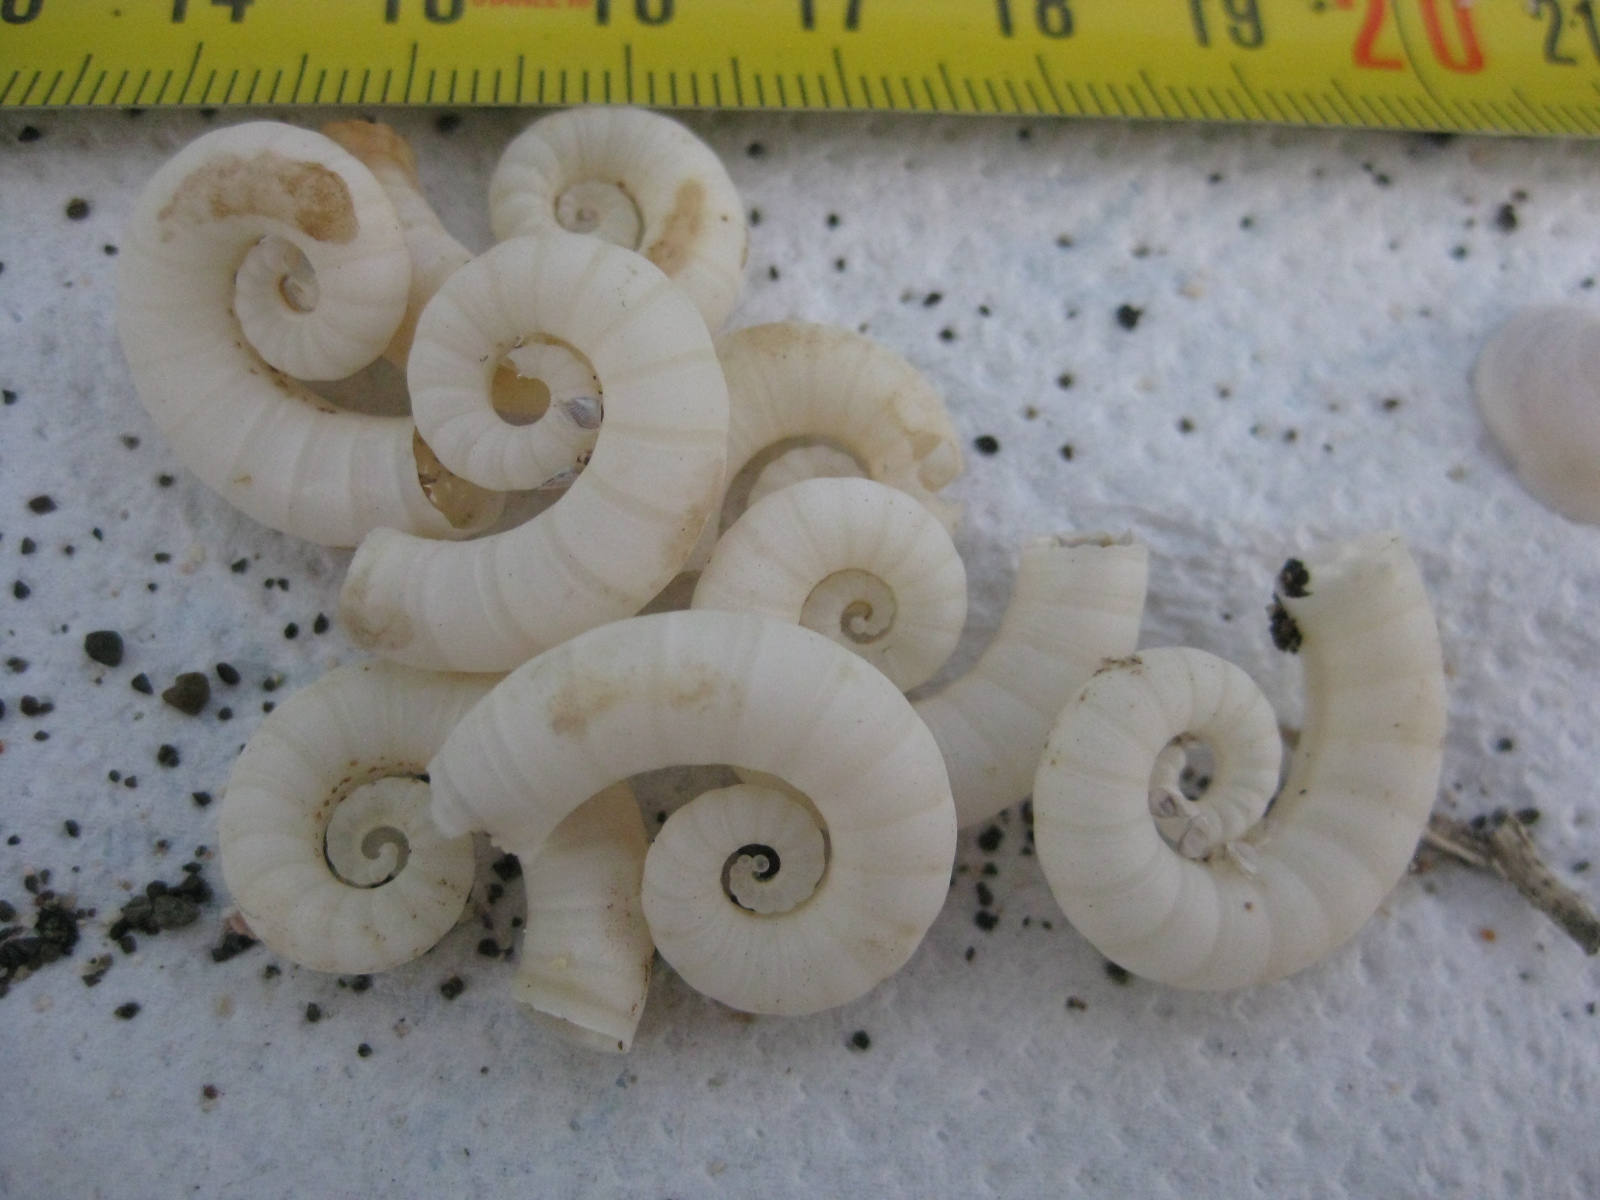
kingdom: Animalia
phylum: Mollusca
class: Cephalopoda
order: Spirulida
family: Spirulidae
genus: Spirula
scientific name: Spirula spirula
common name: Ram's horn squid
